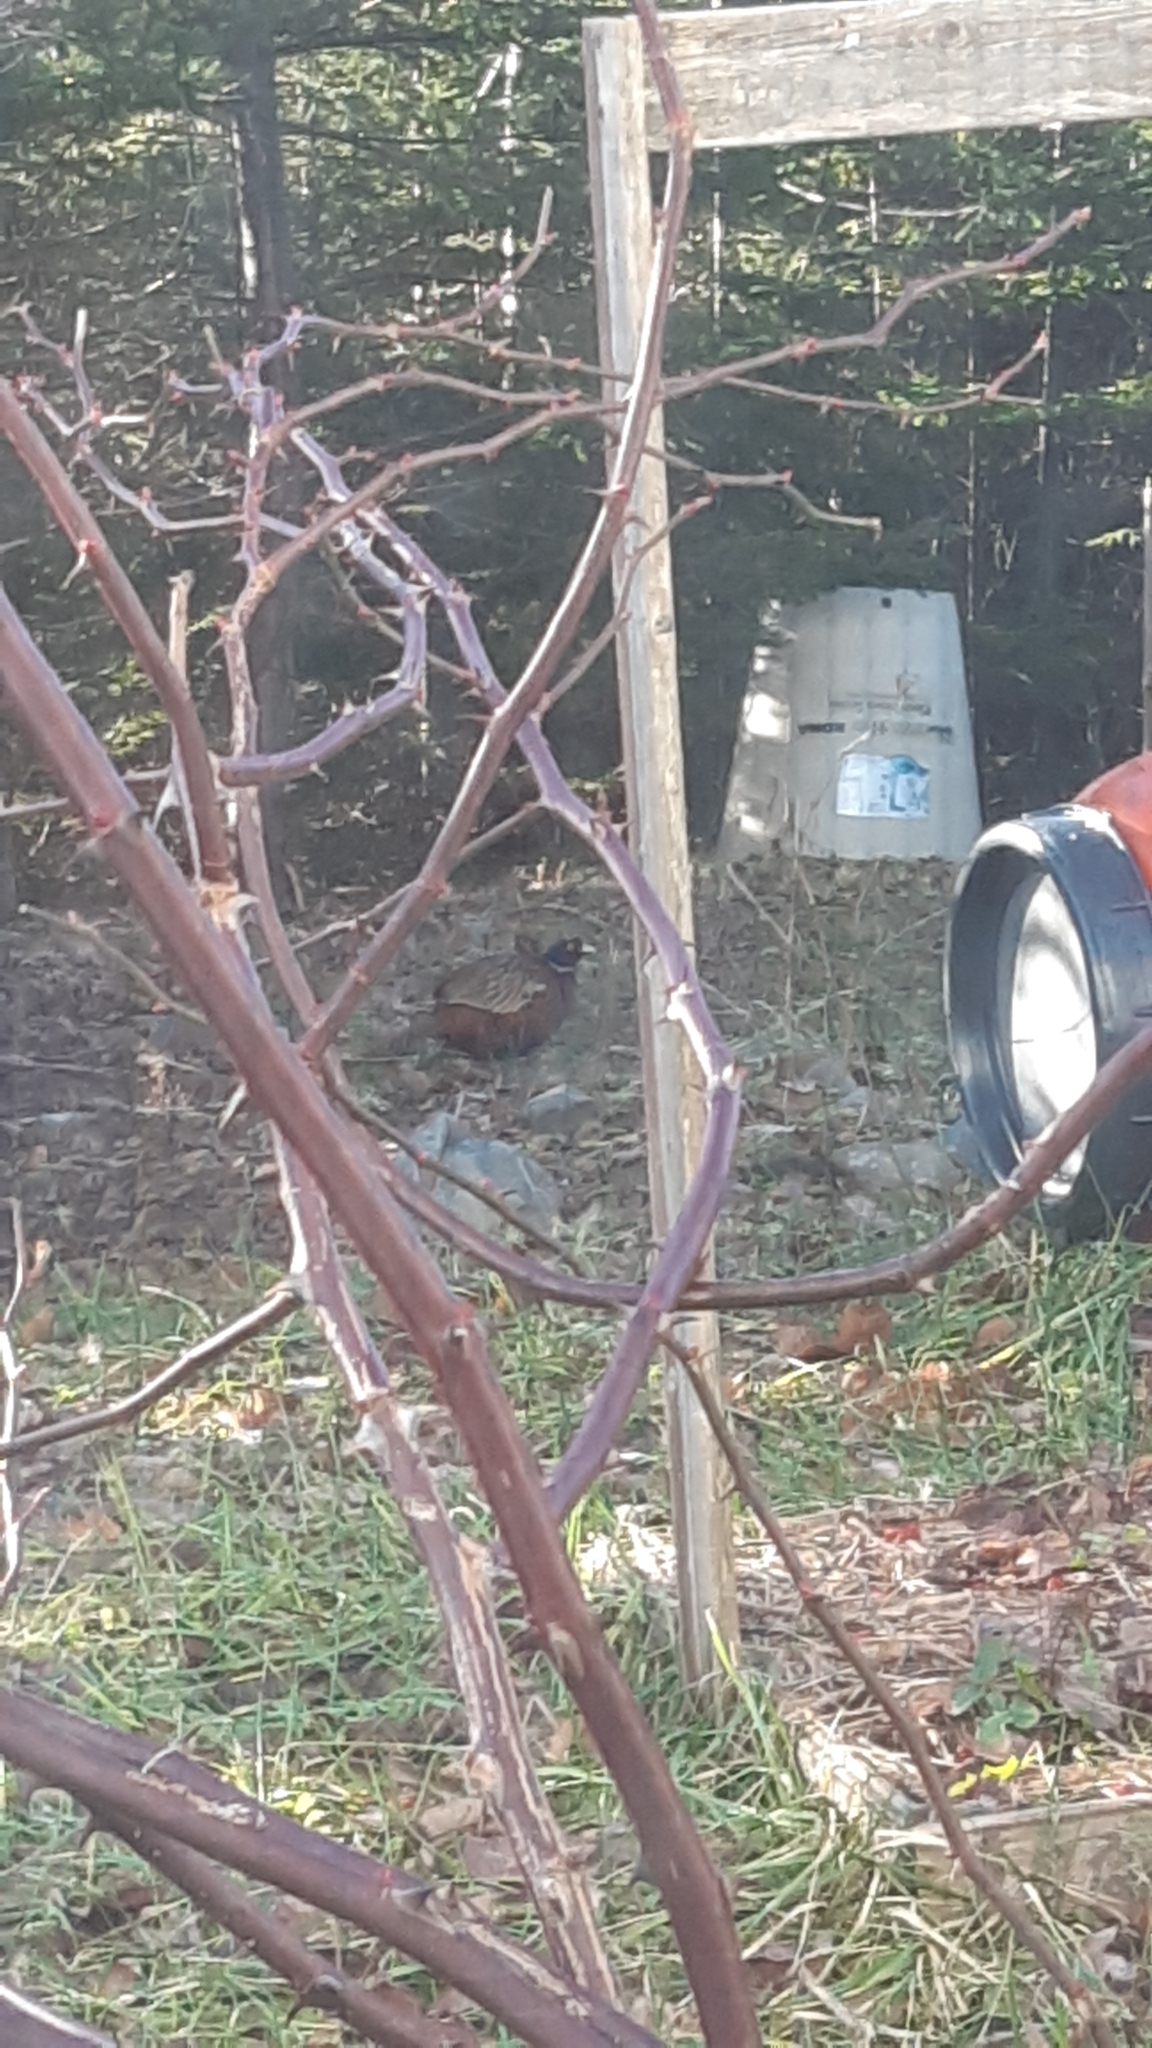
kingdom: Animalia
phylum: Chordata
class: Aves
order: Galliformes
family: Phasianidae
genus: Phasianus
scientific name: Phasianus colchicus
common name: Common pheasant
